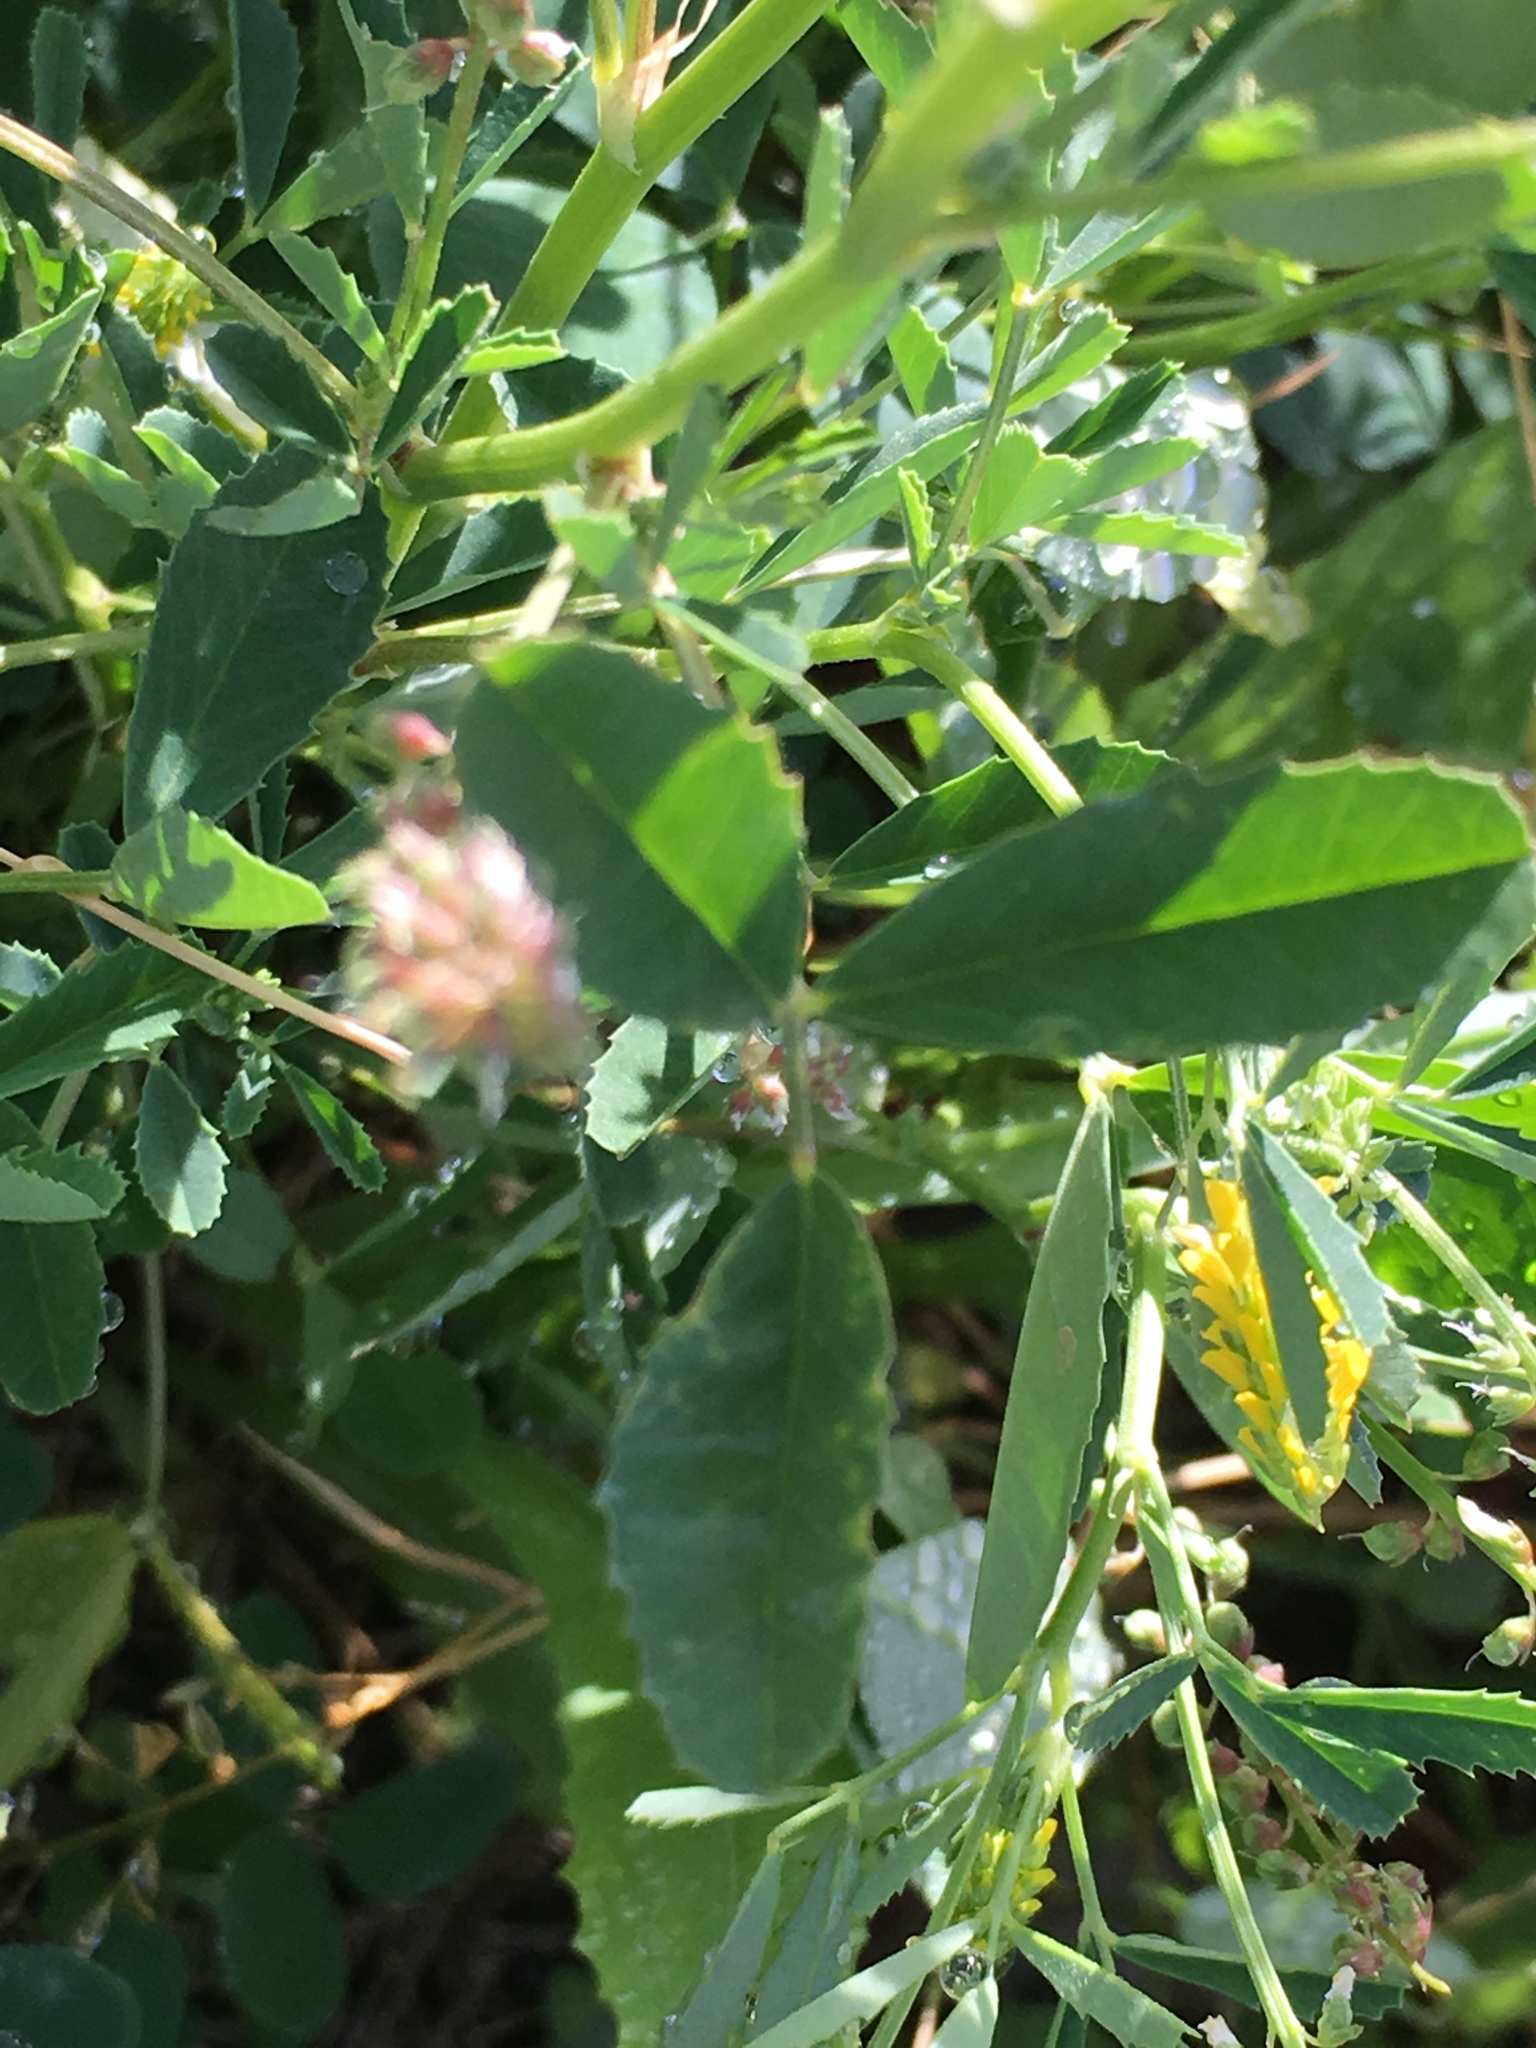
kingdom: Plantae
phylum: Tracheophyta
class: Magnoliopsida
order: Fabales
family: Fabaceae
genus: Melilotus
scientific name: Melilotus indicus
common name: Small melilot
